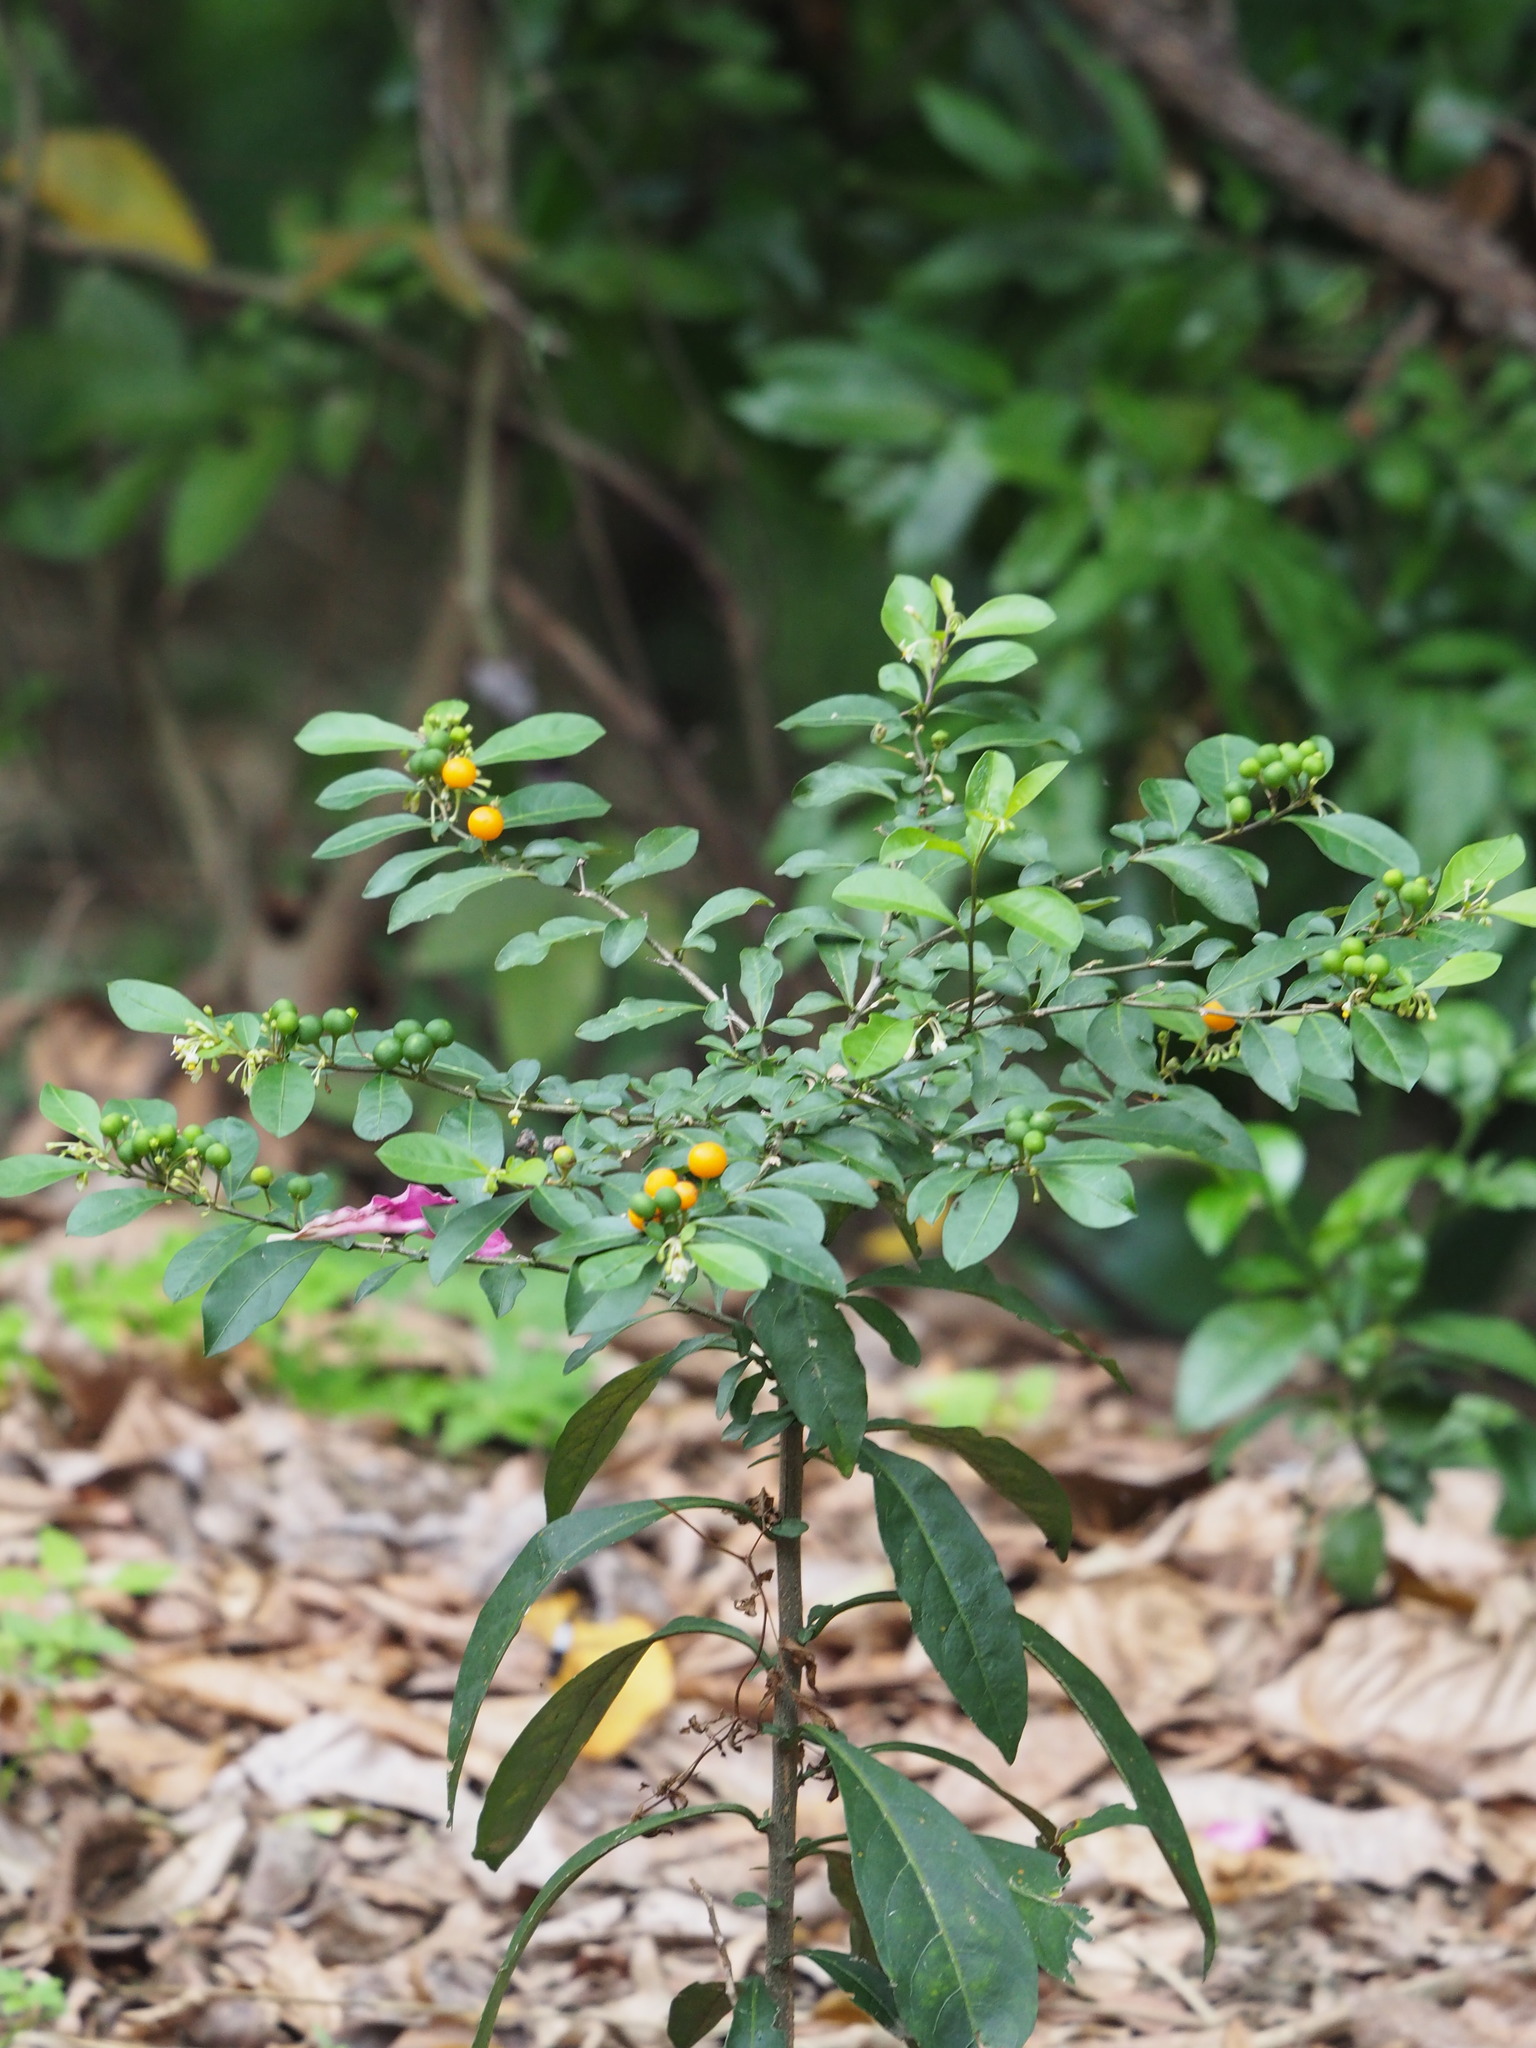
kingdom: Plantae
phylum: Tracheophyta
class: Magnoliopsida
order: Solanales
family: Solanaceae
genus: Solanum
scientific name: Solanum diphyllum
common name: Twoleaf nightshade
